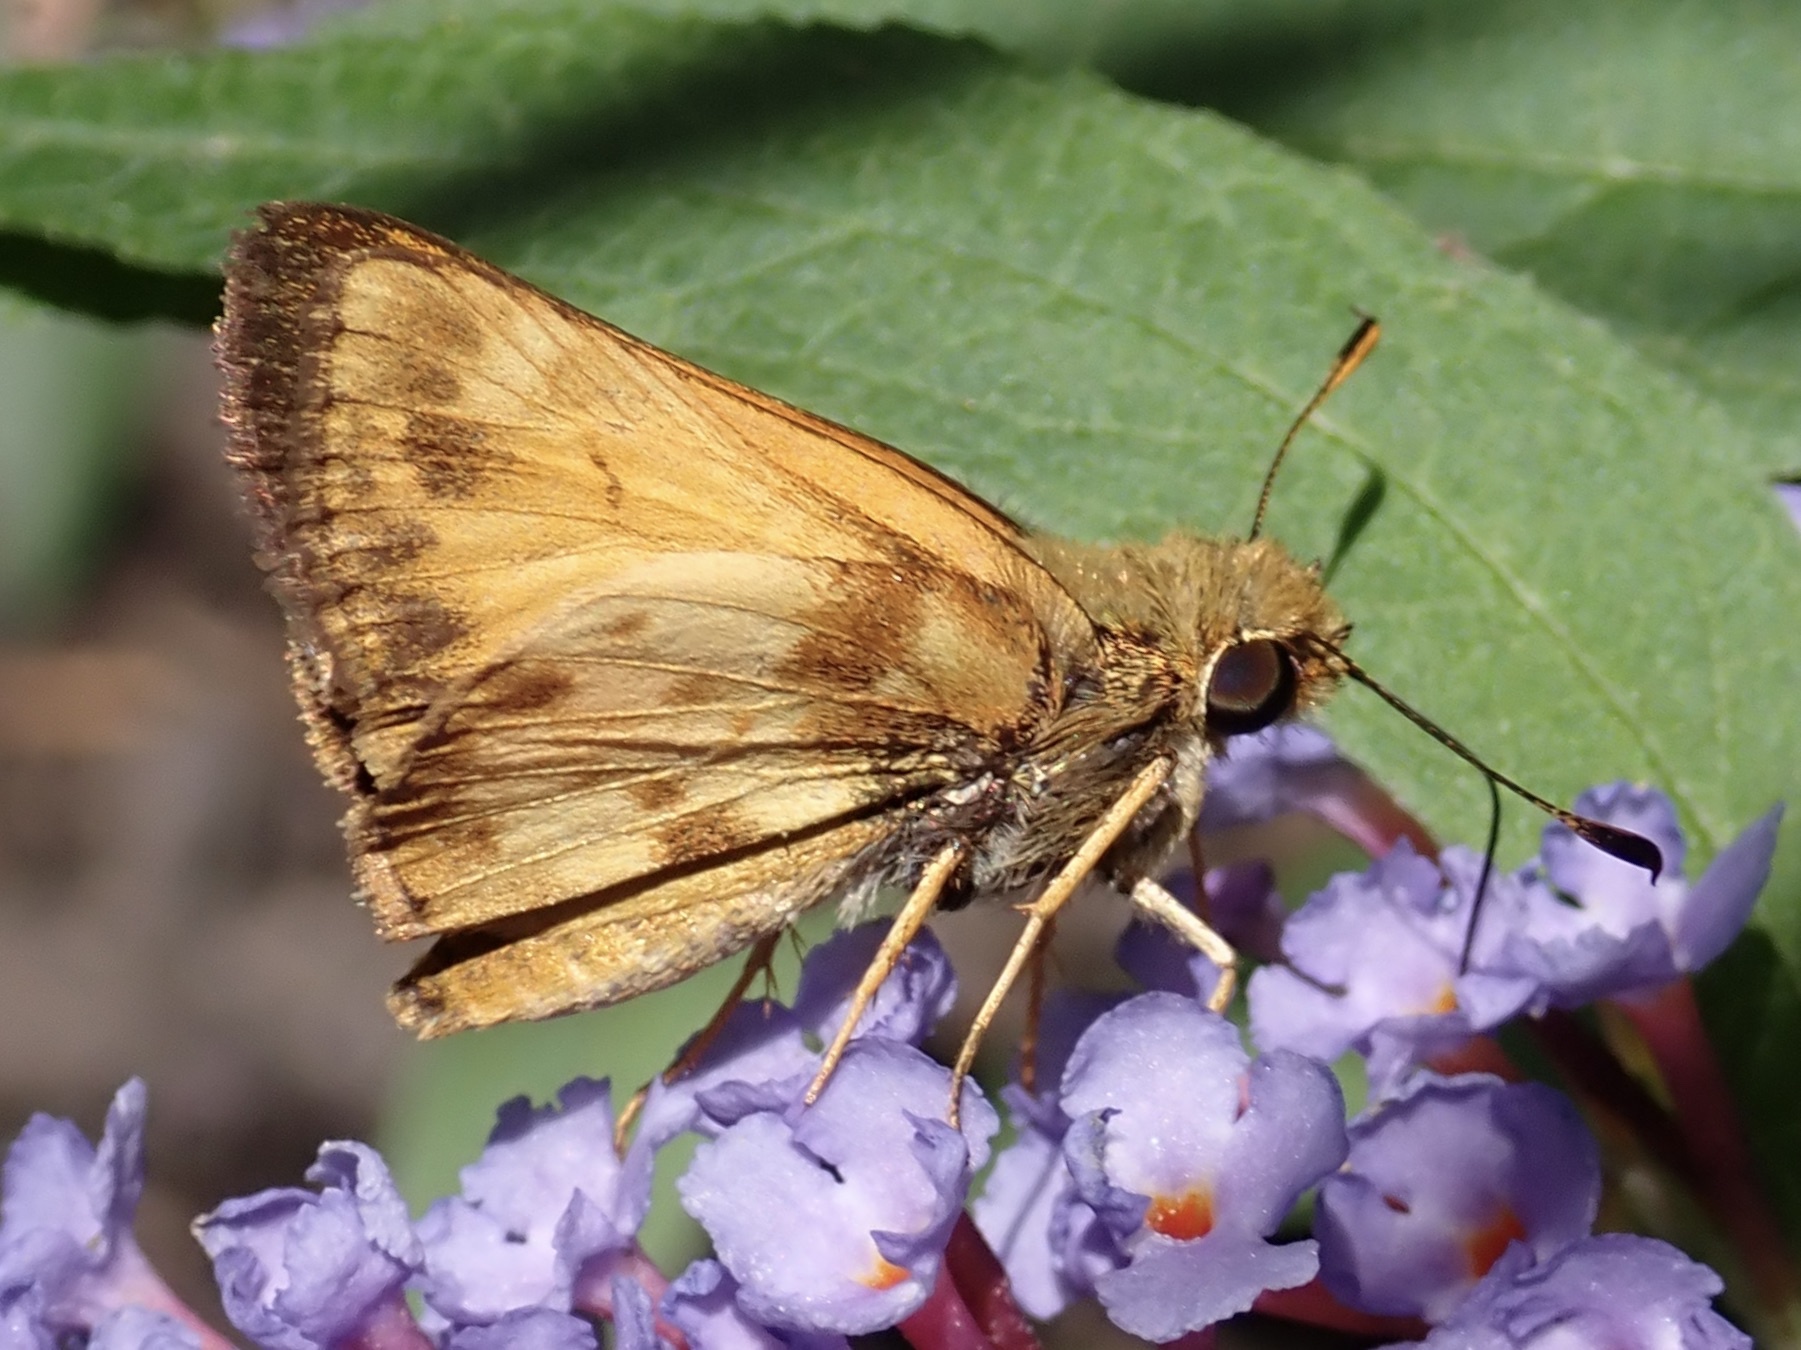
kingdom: Animalia
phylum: Arthropoda
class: Insecta
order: Lepidoptera
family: Hesperiidae
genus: Lon
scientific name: Lon zabulon
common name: Zabulon skipper
